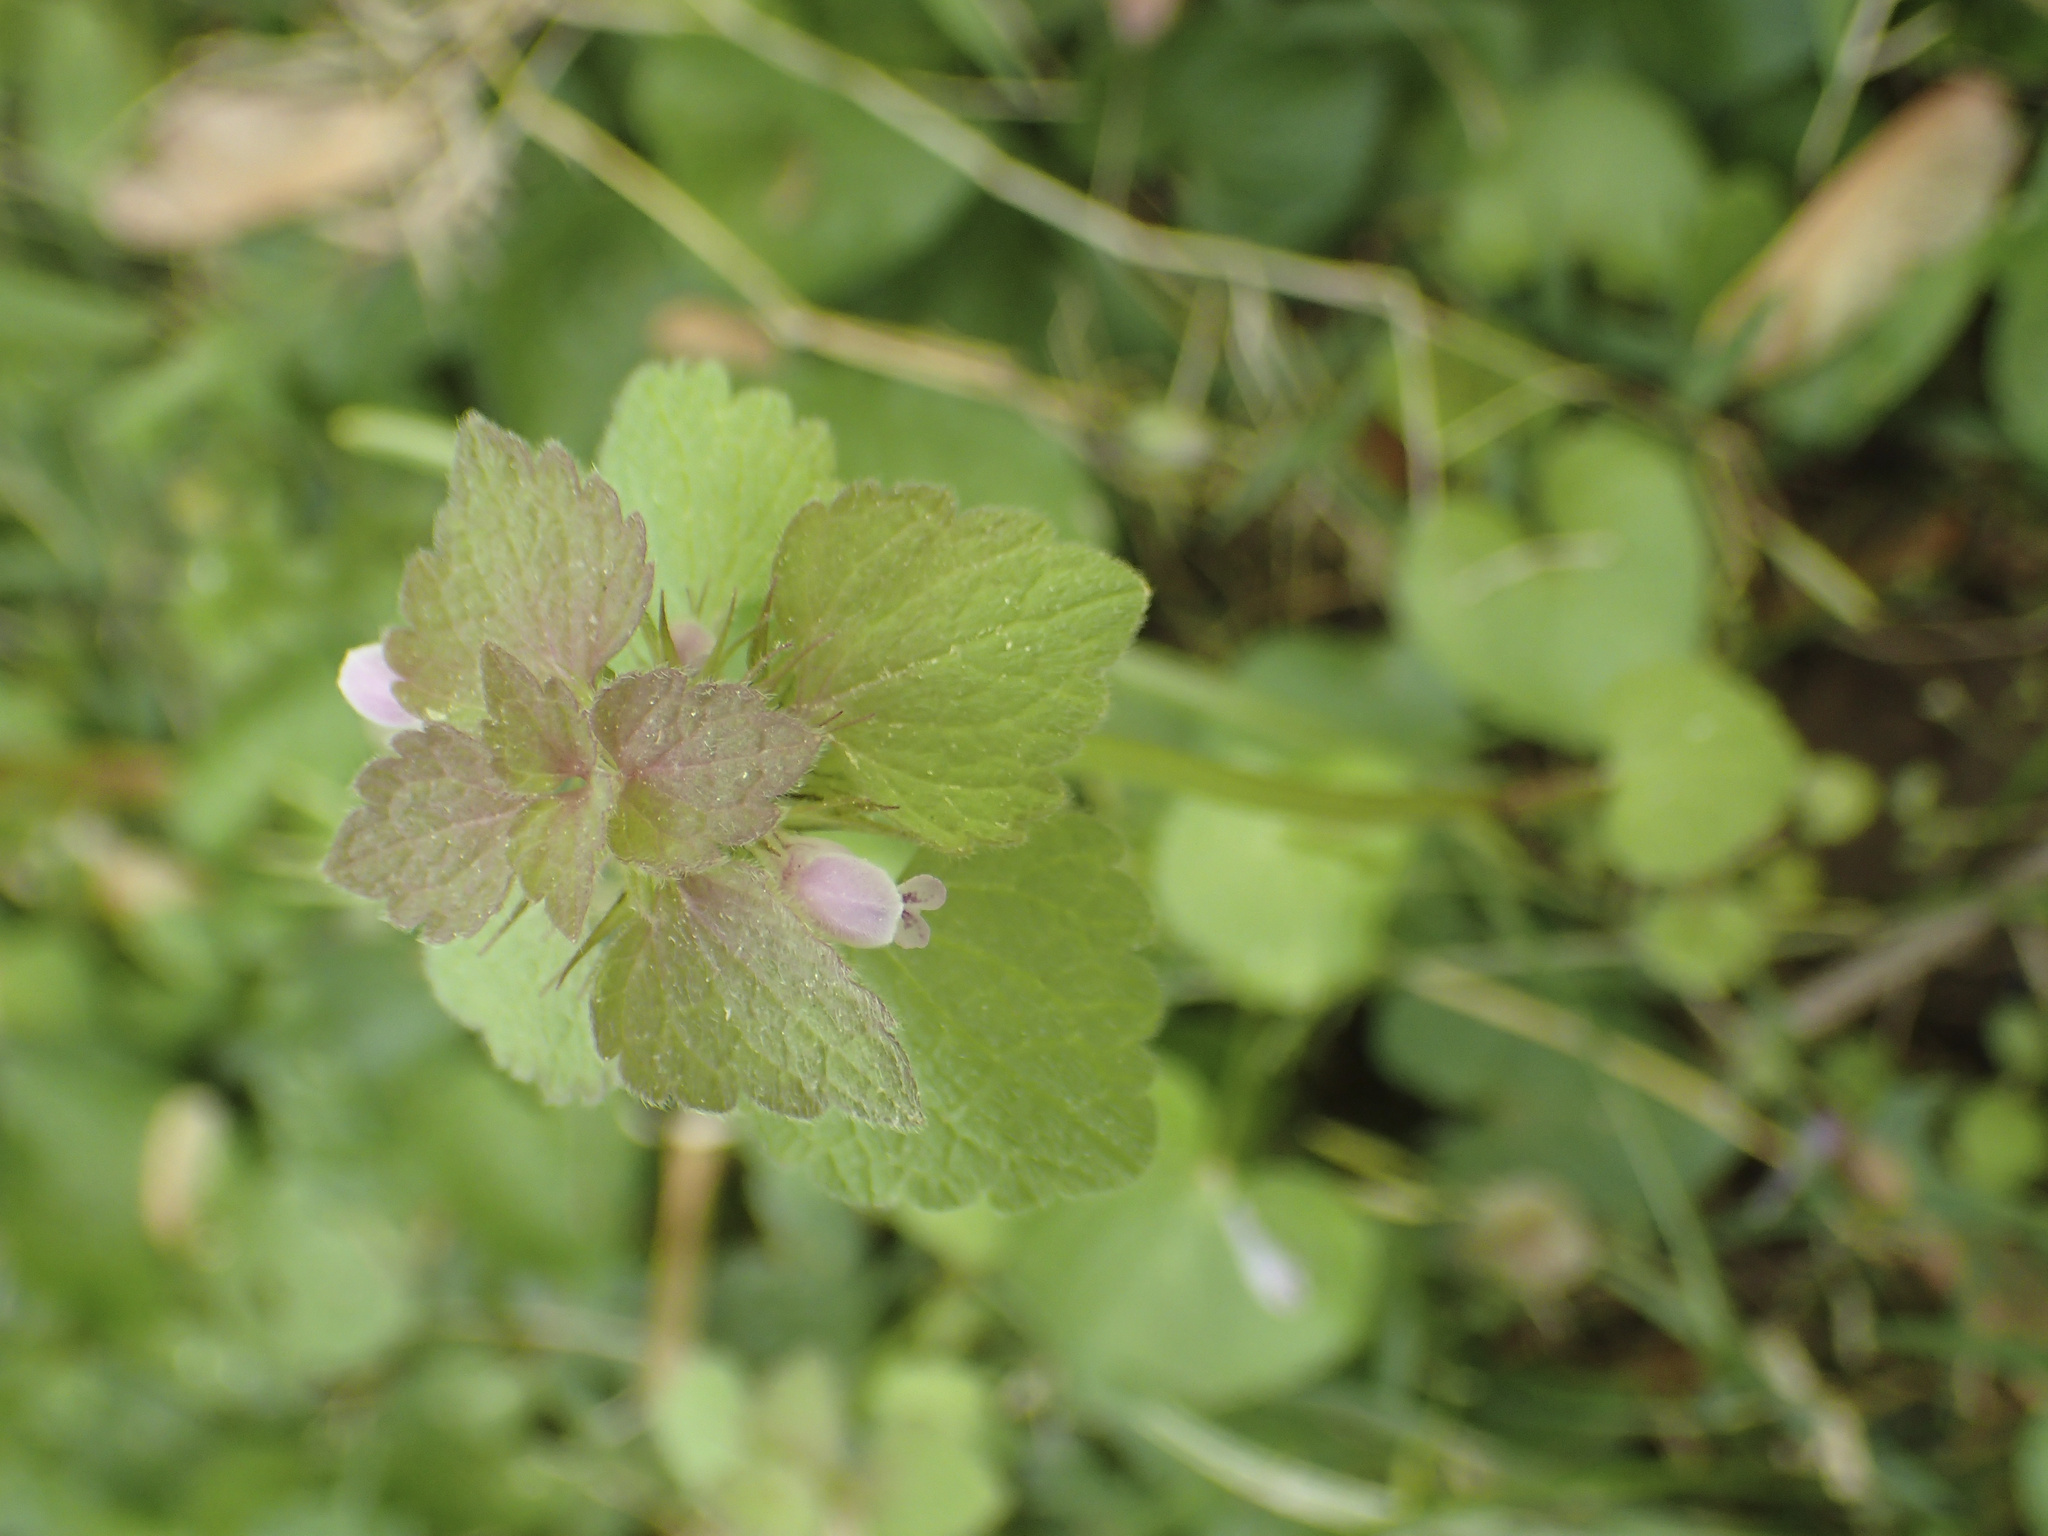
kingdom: Plantae
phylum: Tracheophyta
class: Magnoliopsida
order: Lamiales
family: Lamiaceae
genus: Lamium
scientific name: Lamium purpureum
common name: Red dead-nettle
